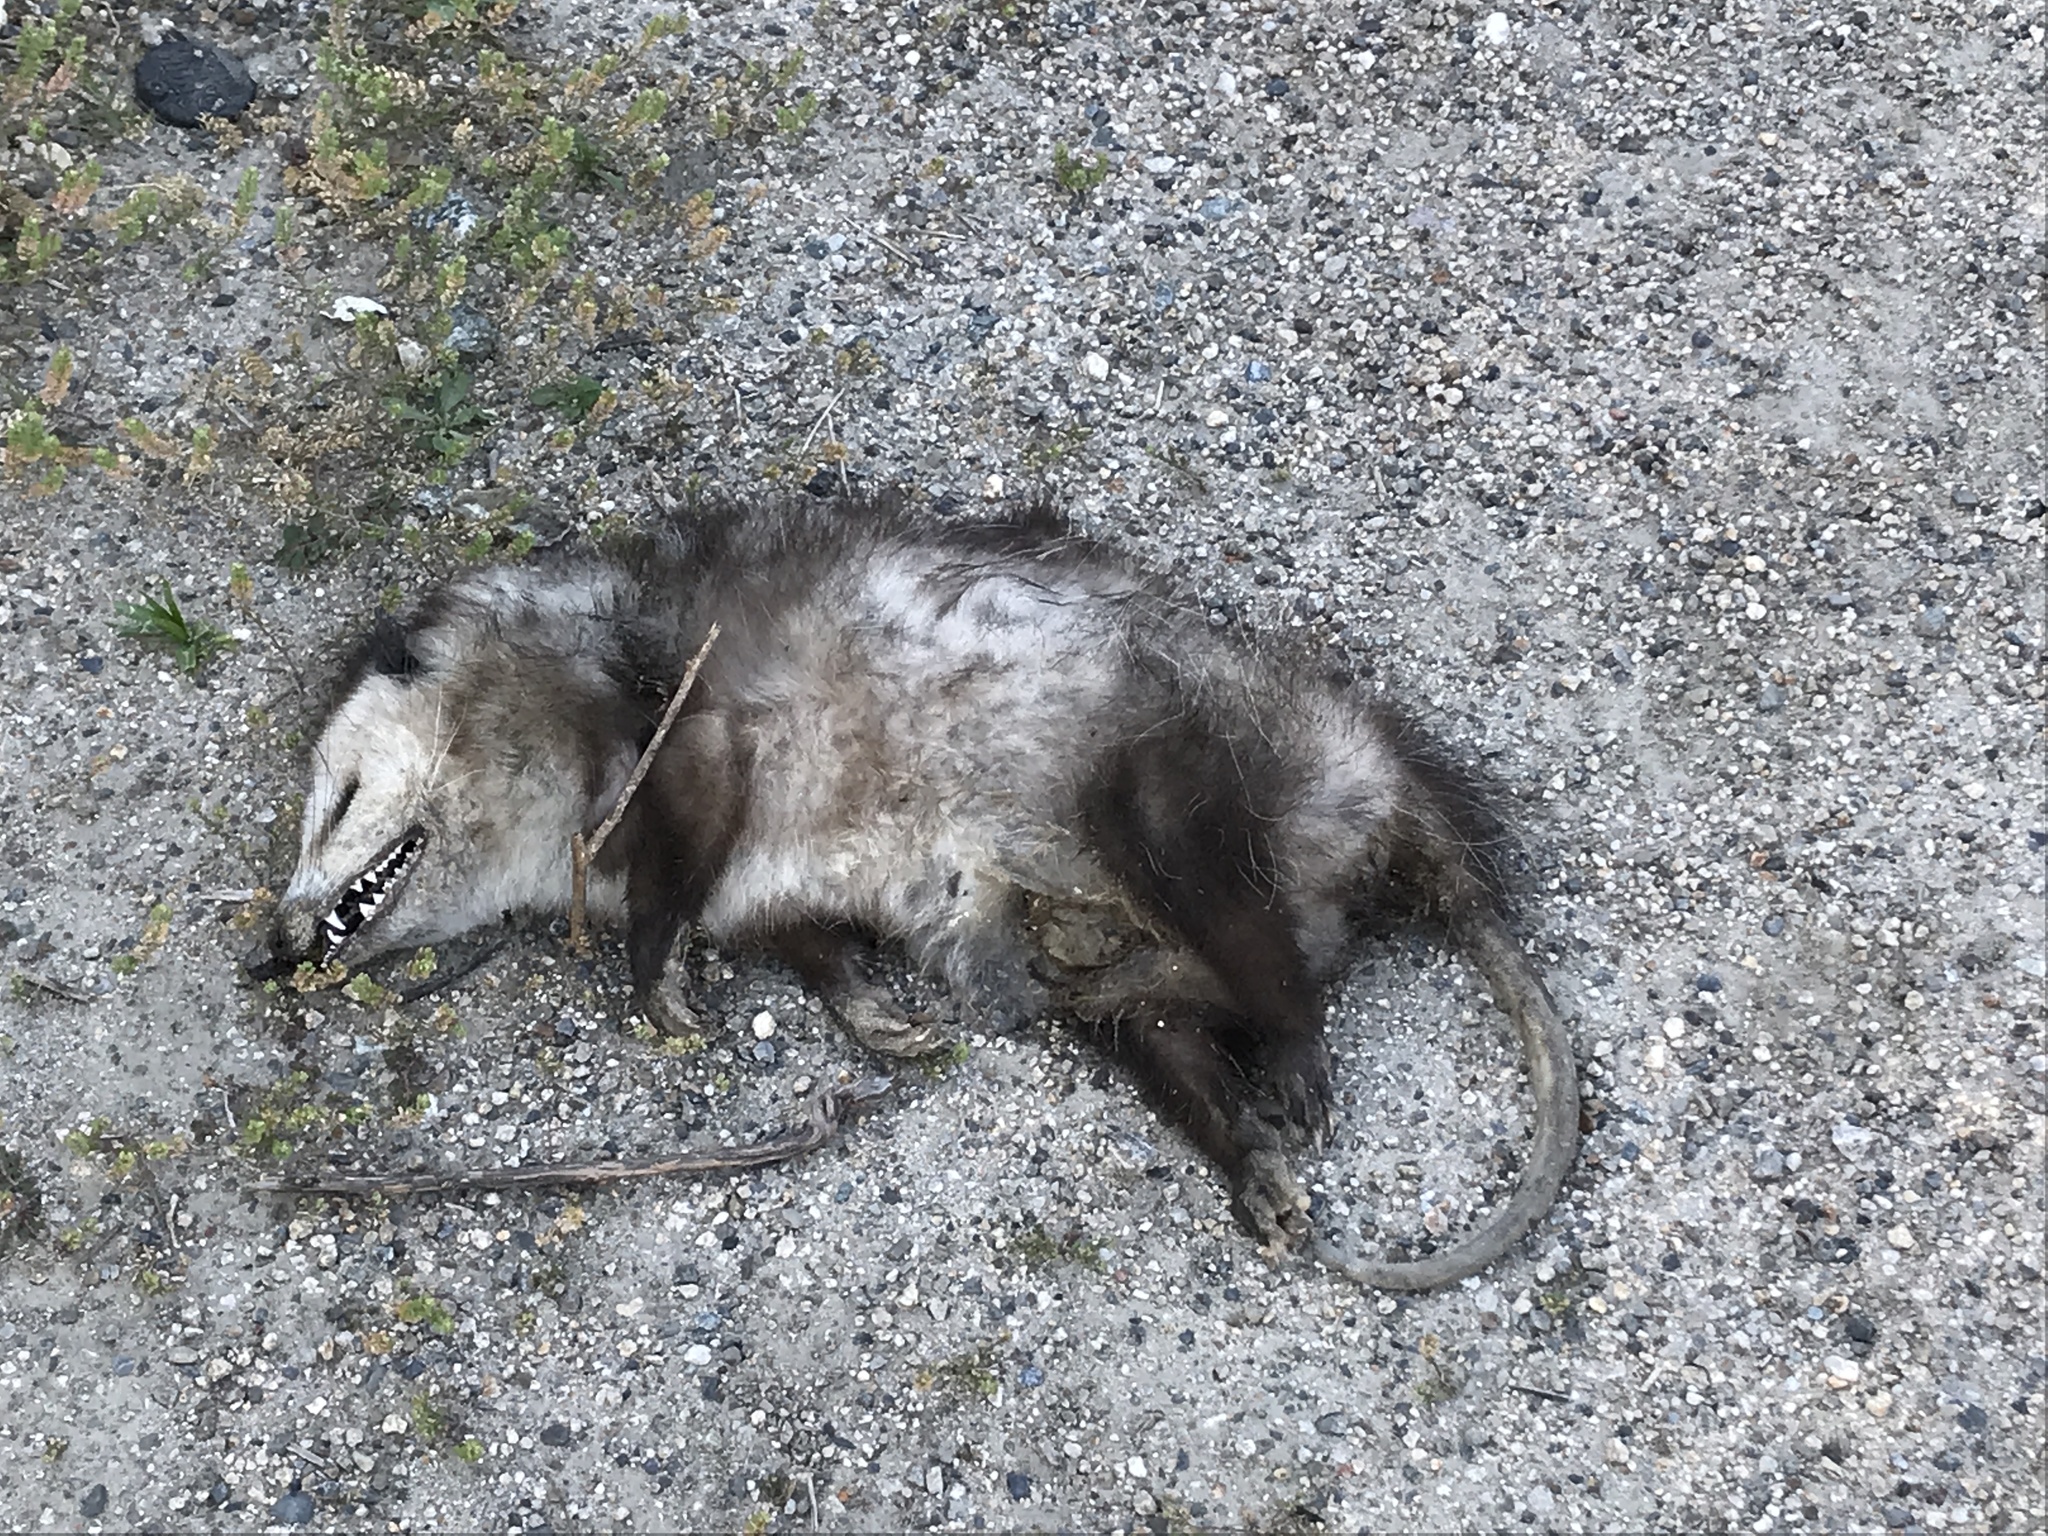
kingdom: Animalia
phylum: Chordata
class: Mammalia
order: Didelphimorphia
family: Didelphidae
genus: Didelphis
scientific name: Didelphis virginiana
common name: Virginia opossum
